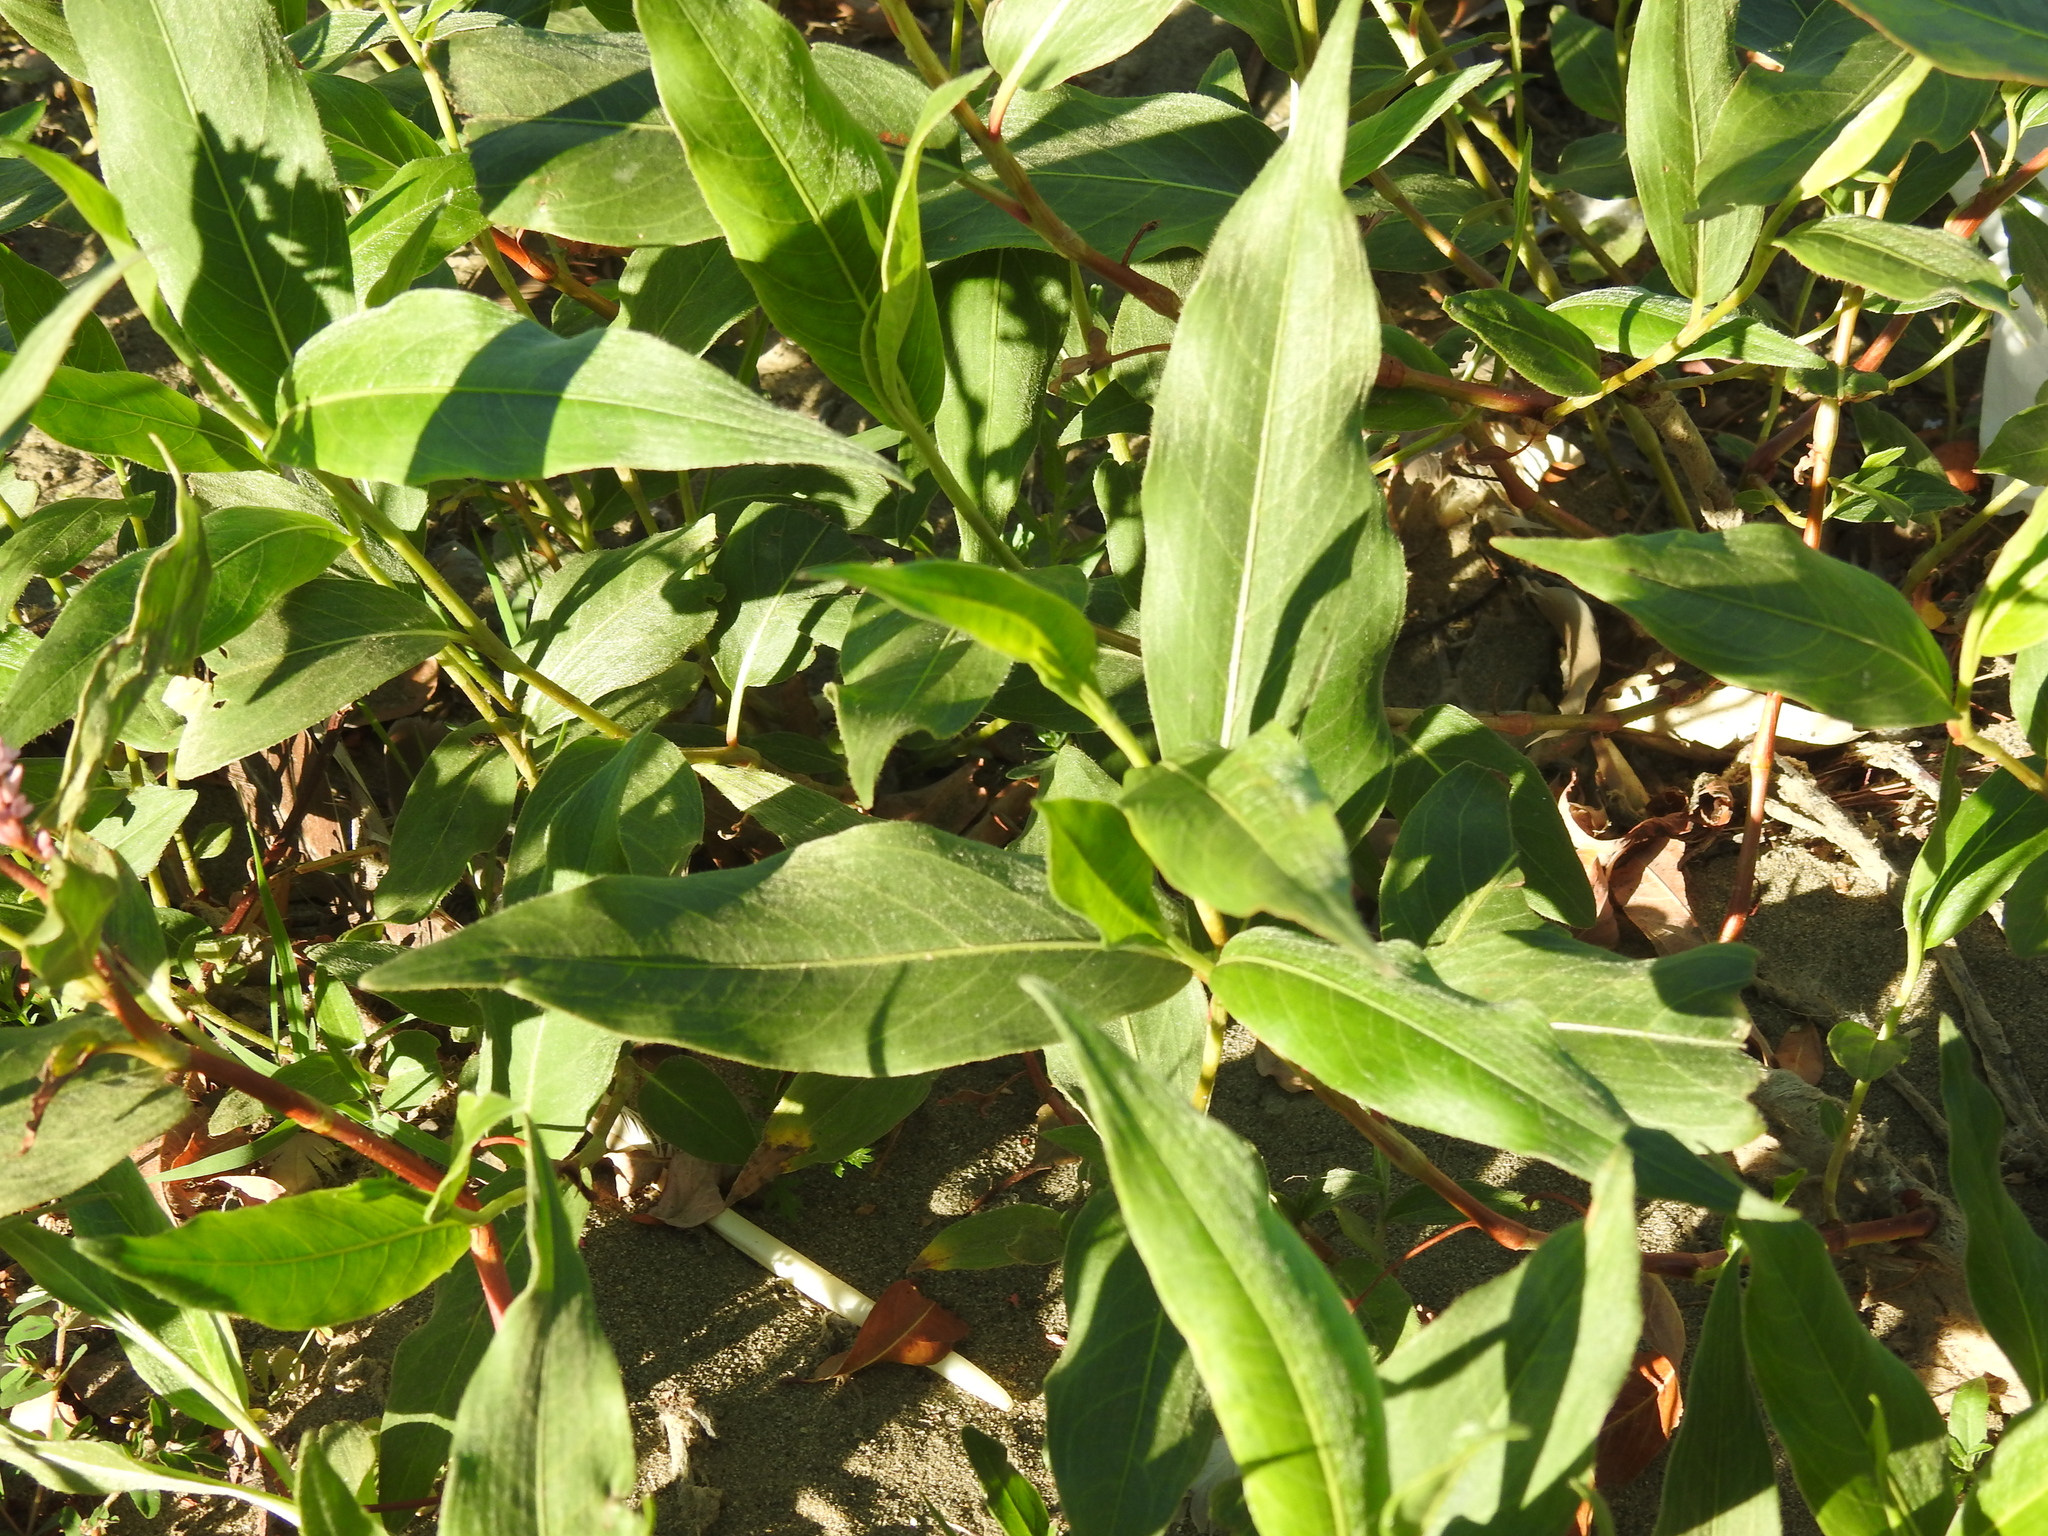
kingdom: Plantae
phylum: Tracheophyta
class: Magnoliopsida
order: Caryophyllales
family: Polygonaceae
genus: Persicaria
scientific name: Persicaria amphibia
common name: Amphibious bistort
